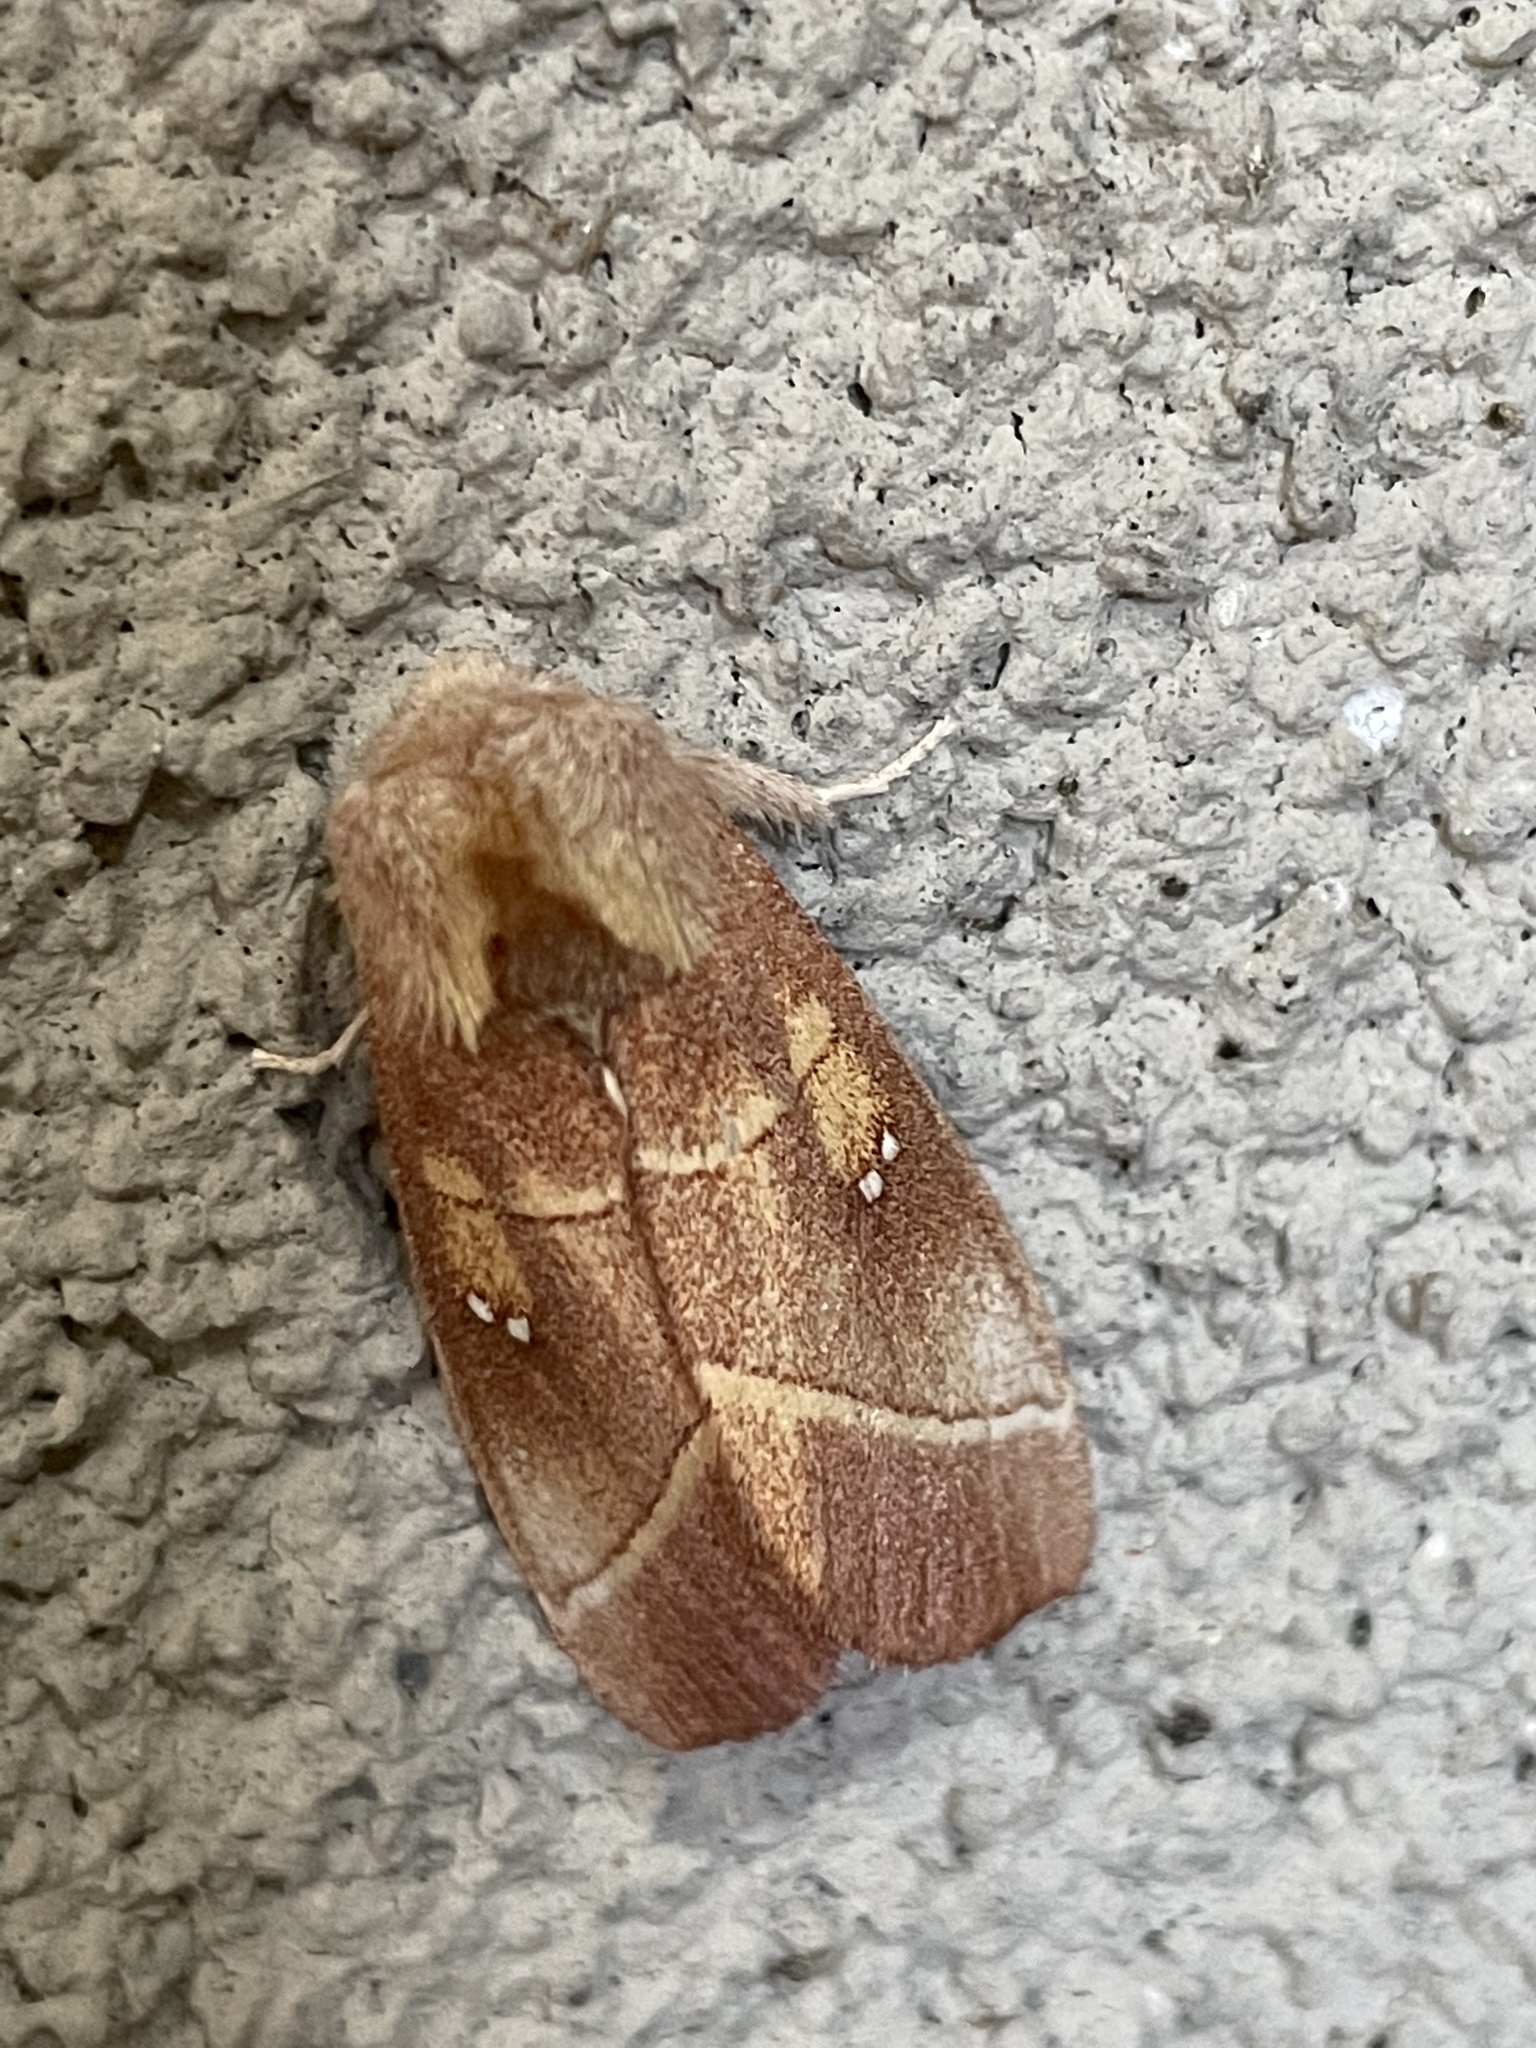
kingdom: Animalia
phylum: Arthropoda
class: Insecta
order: Lepidoptera
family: Notodontidae
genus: Nadata
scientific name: Nadata gibbosa
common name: White-dotted prominent
